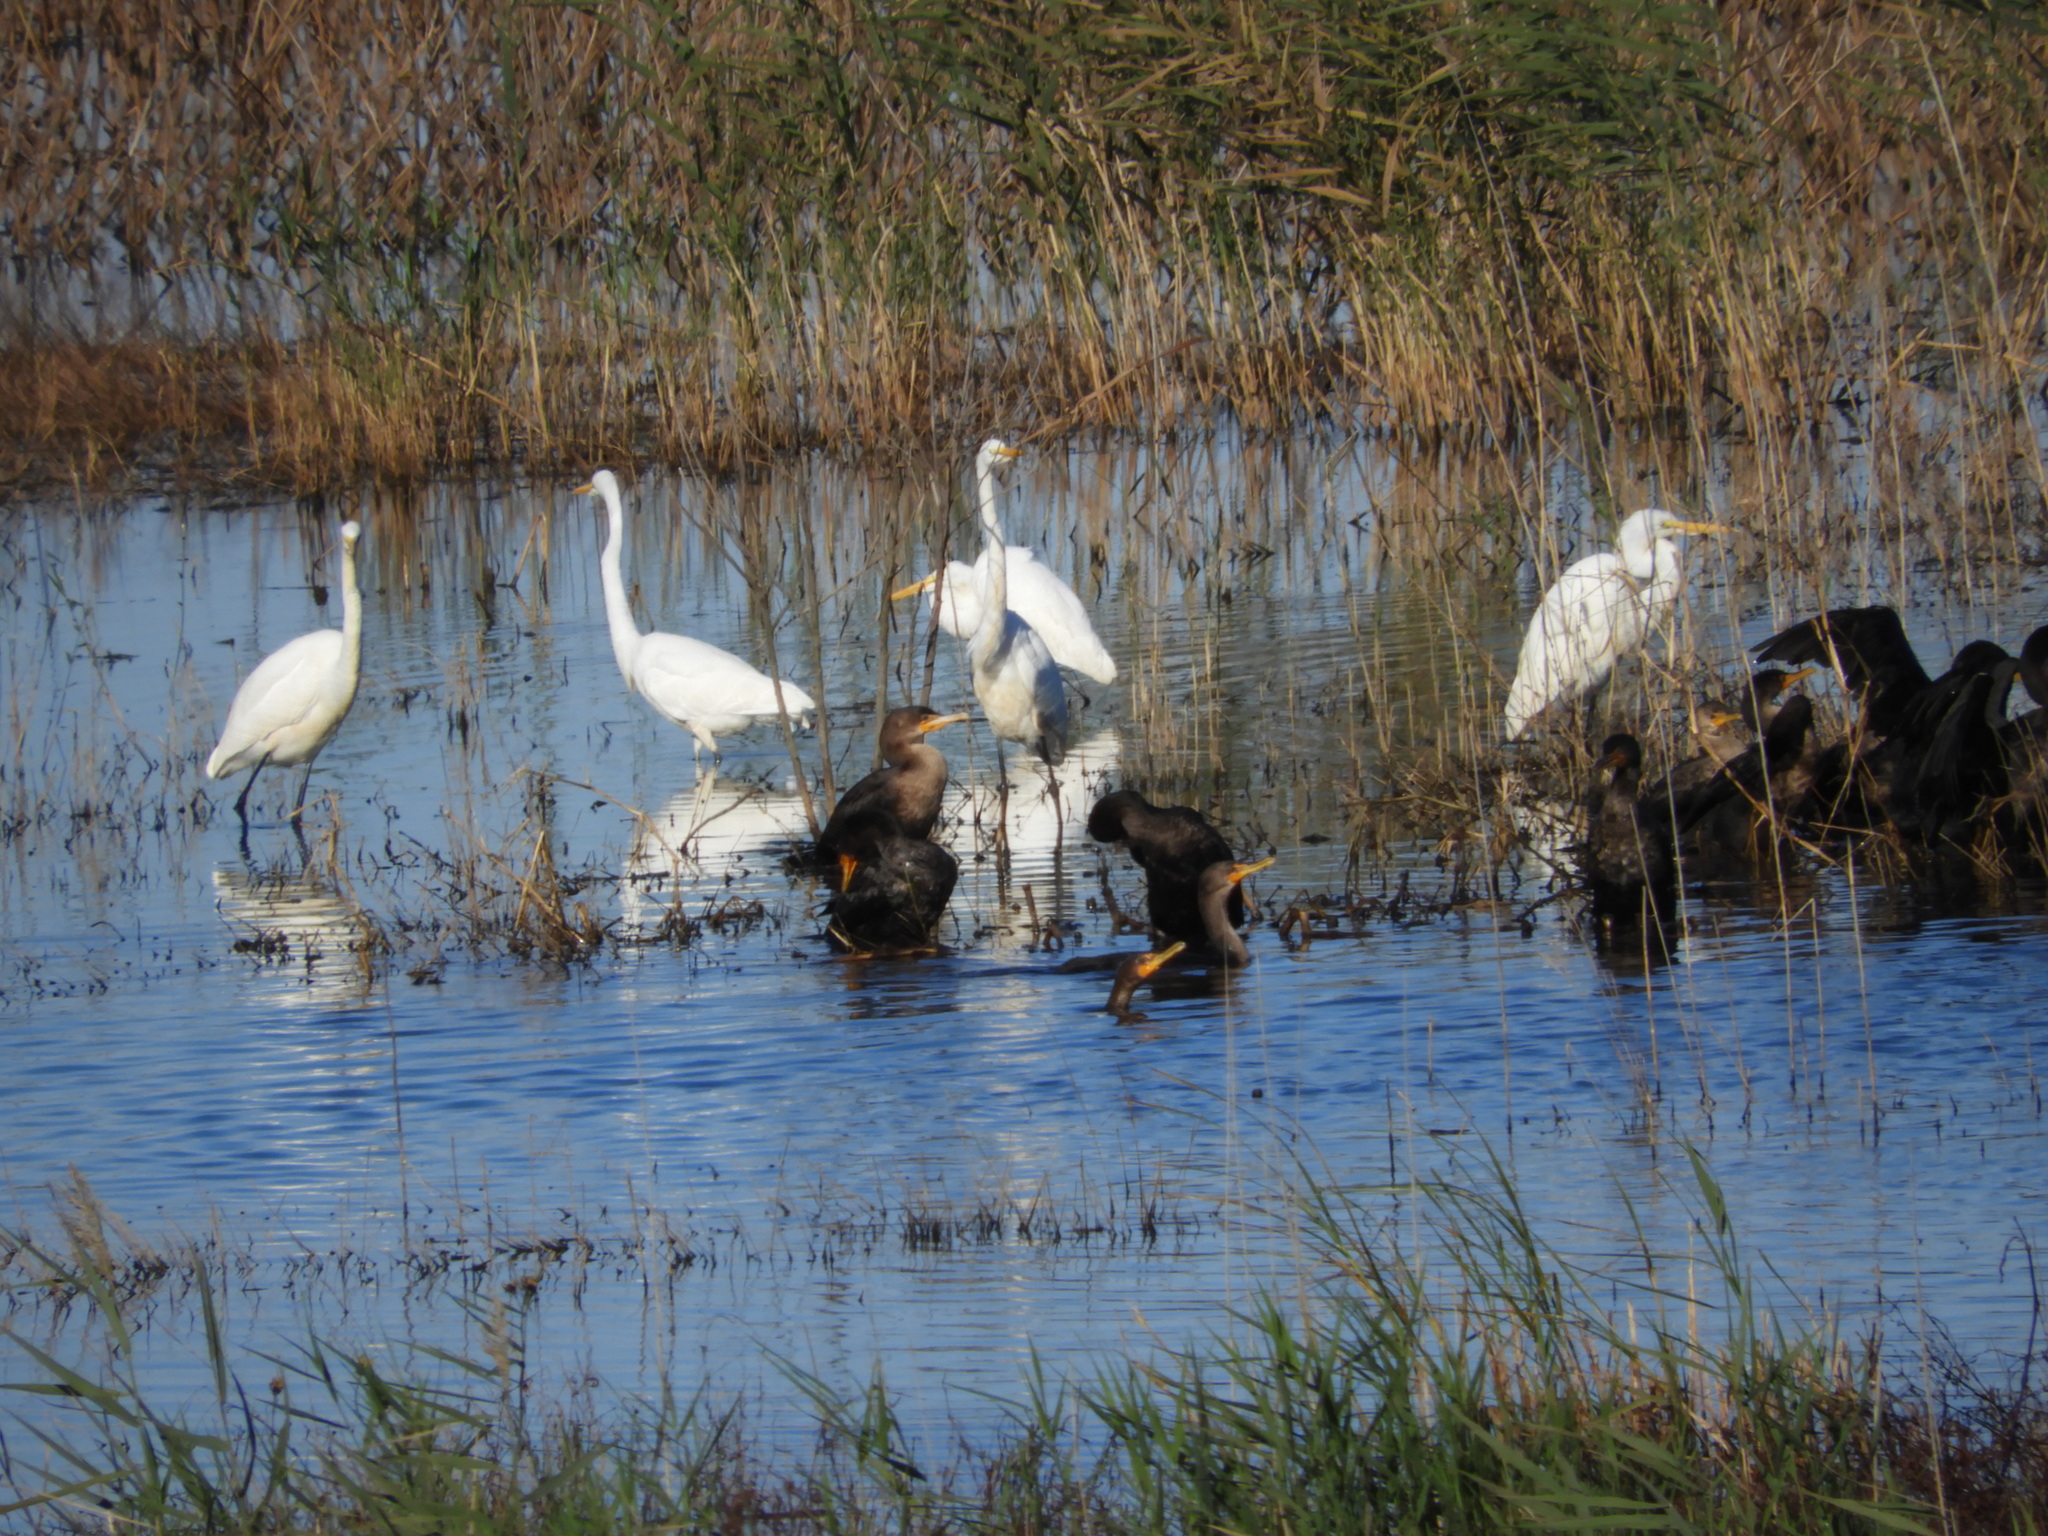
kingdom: Animalia
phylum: Chordata
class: Aves
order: Pelecaniformes
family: Ardeidae
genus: Ardea
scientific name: Ardea alba
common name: Great egret
